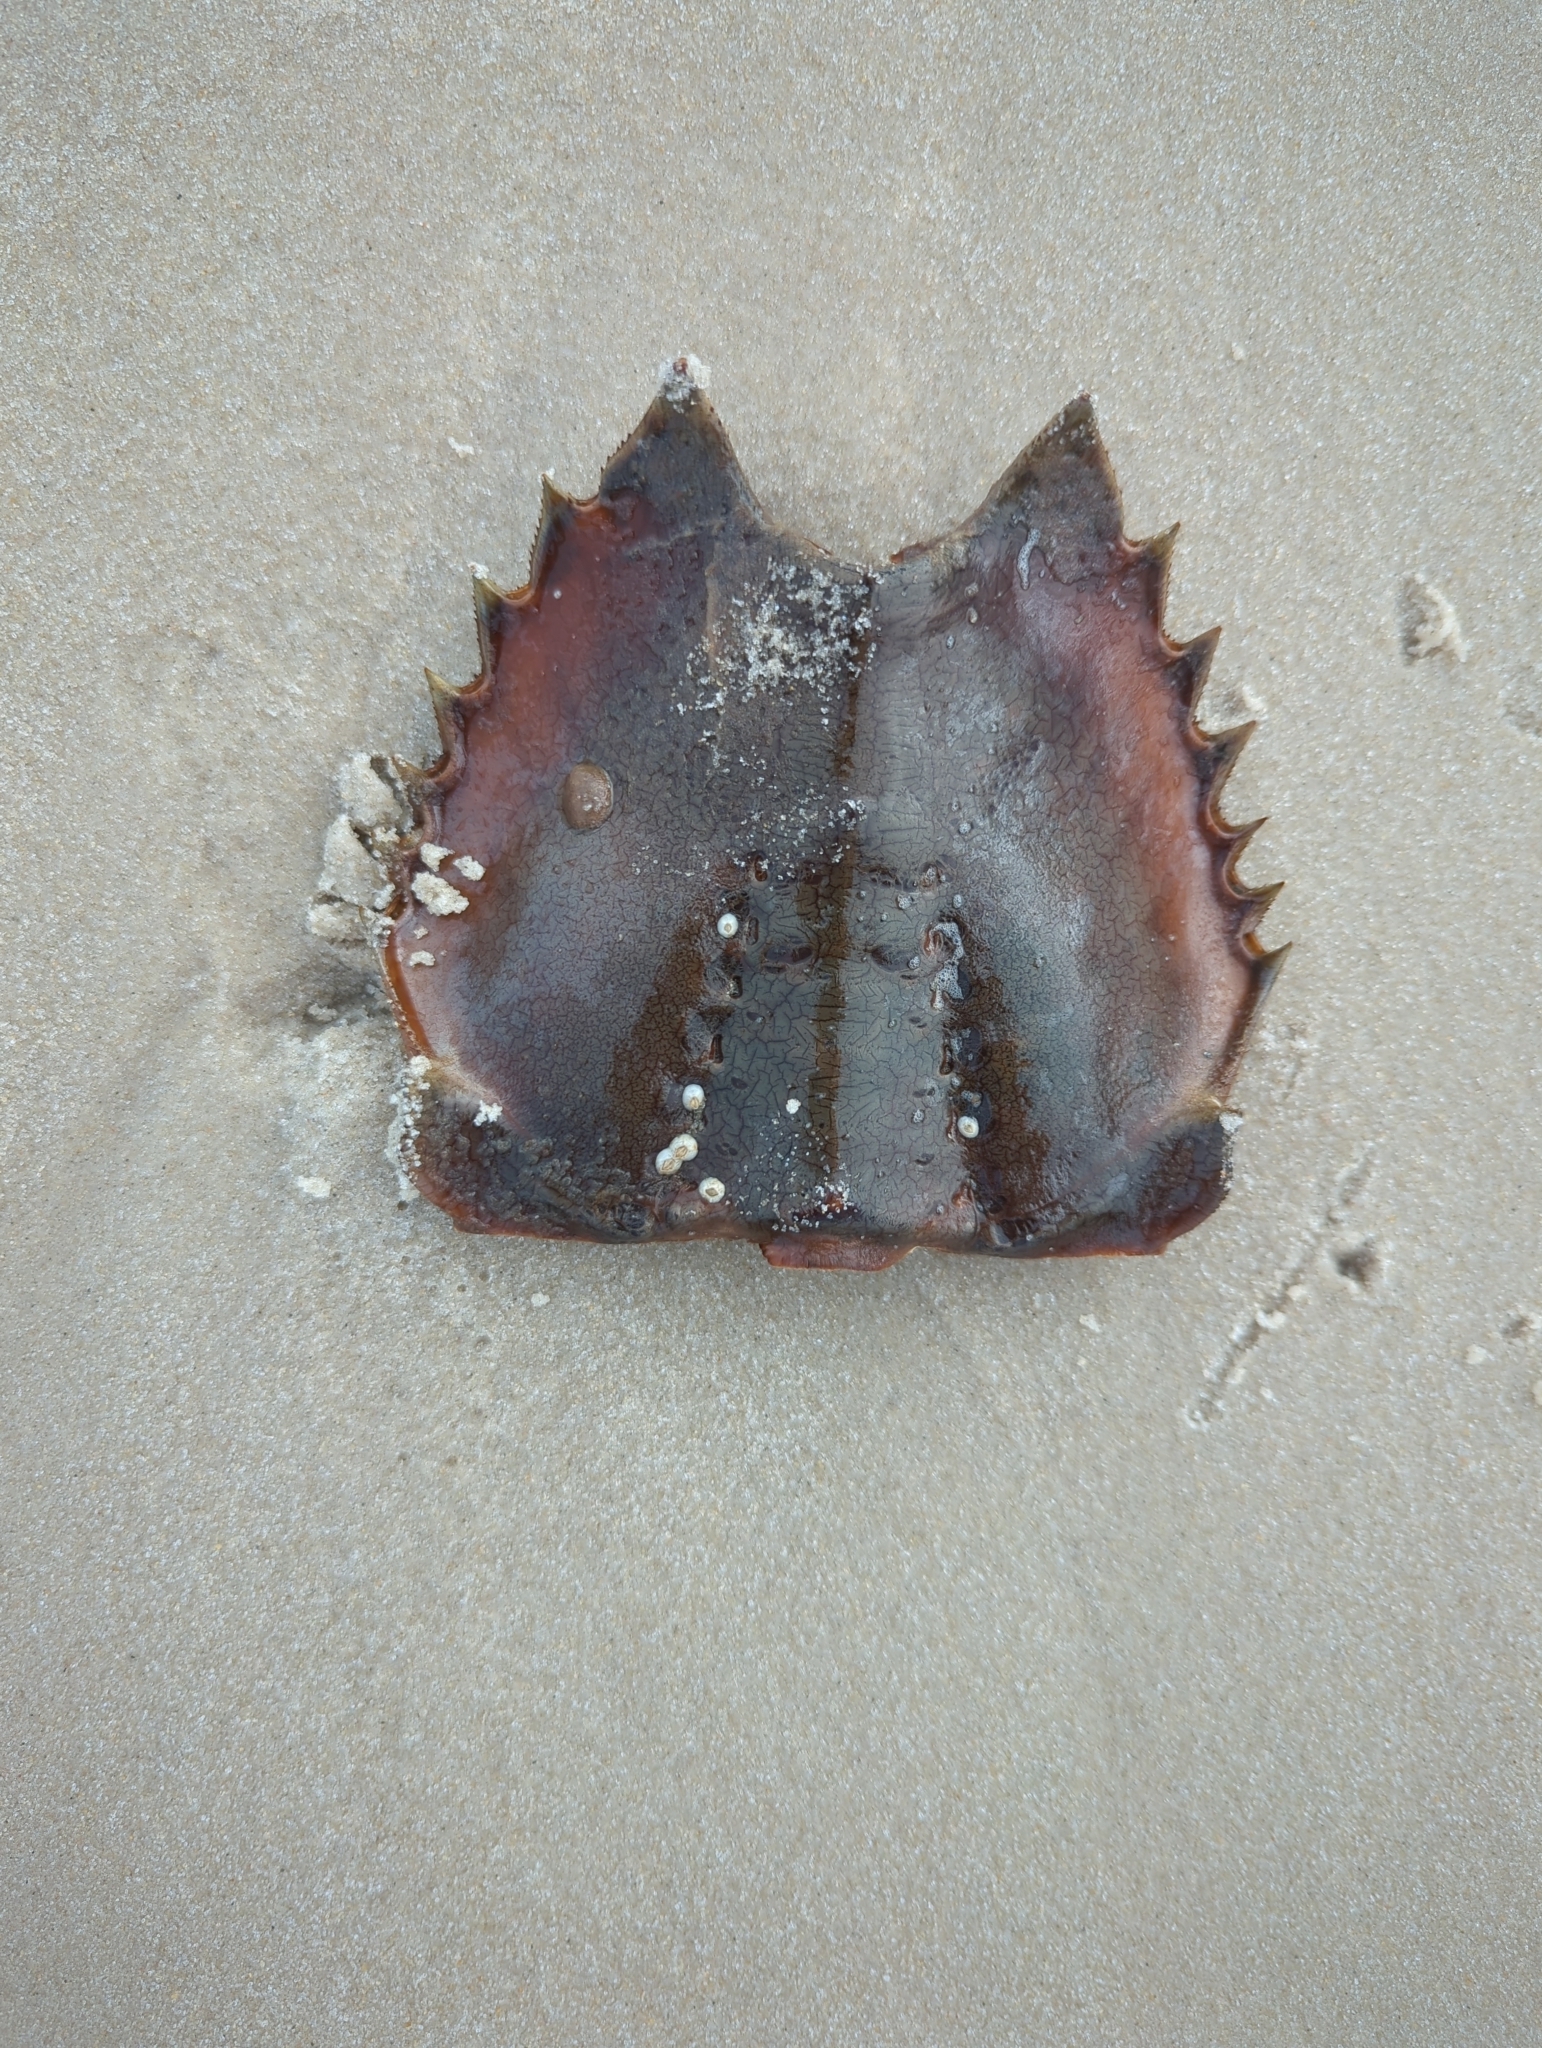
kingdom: Animalia
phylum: Arthropoda
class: Merostomata
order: Xiphosurida
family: Limulidae
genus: Limulus
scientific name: Limulus polyphemus
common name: Horseshoe crab
